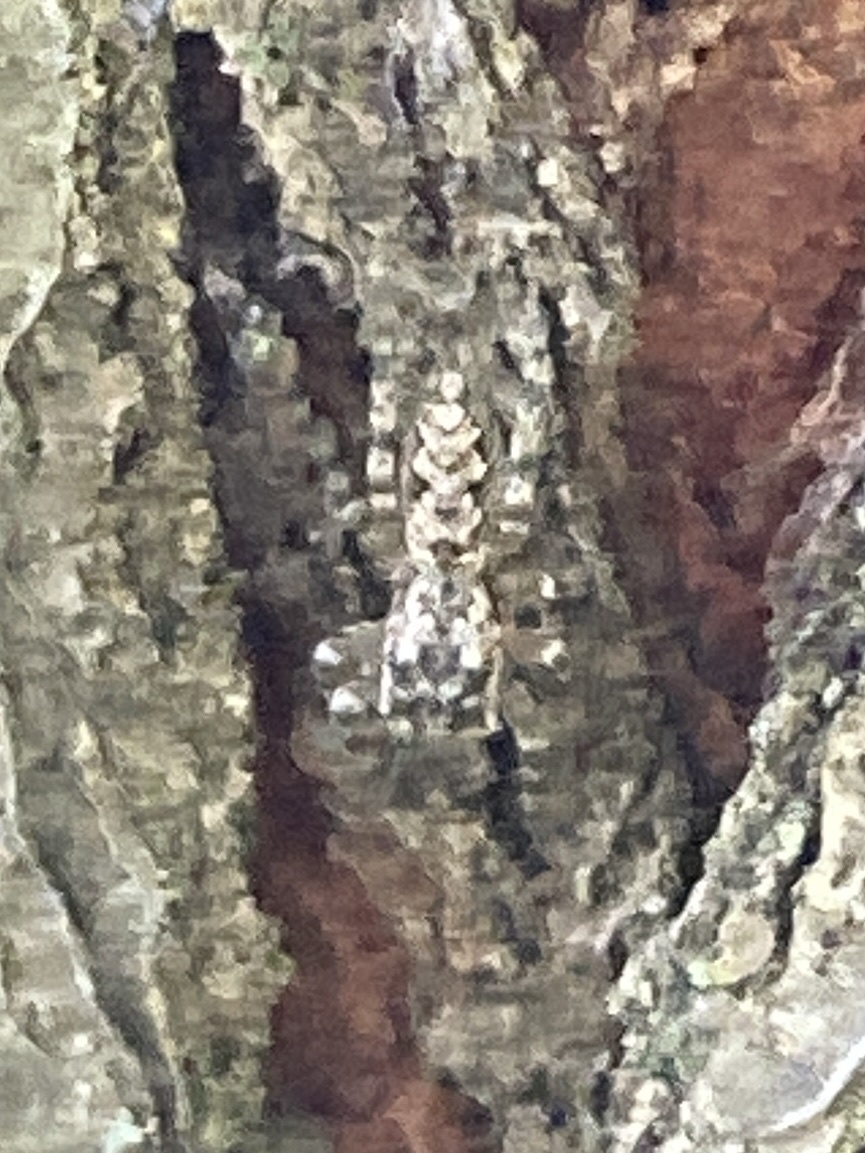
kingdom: Animalia
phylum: Arthropoda
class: Arachnida
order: Araneae
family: Salticidae
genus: Platycryptus
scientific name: Platycryptus undatus
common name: Tan jumping spider
